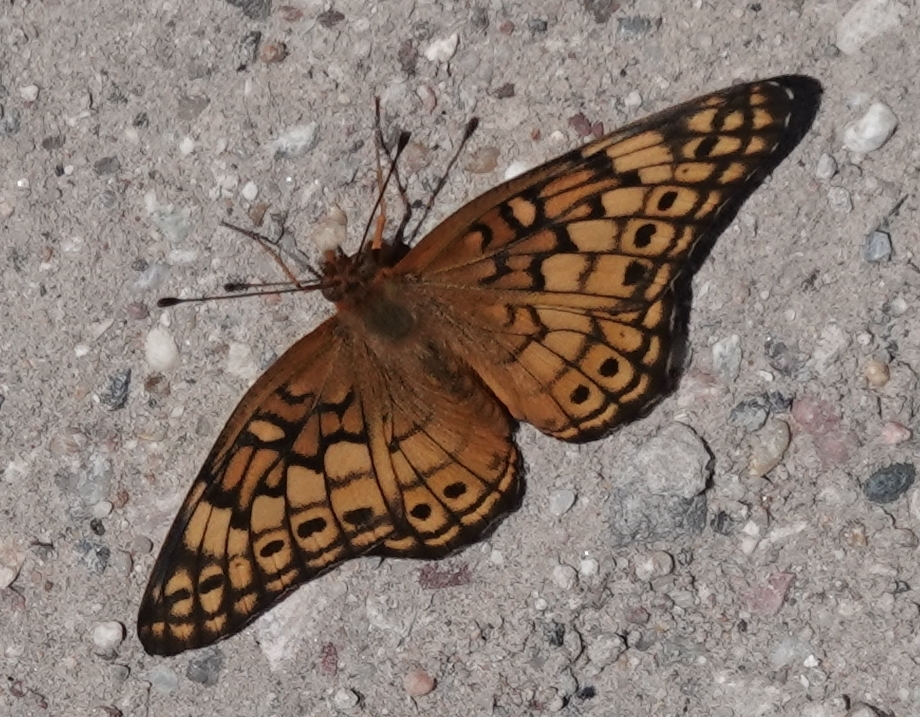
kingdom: Animalia
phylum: Arthropoda
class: Insecta
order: Lepidoptera
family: Nymphalidae
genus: Euptoieta
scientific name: Euptoieta claudia
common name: Variegated fritillary
